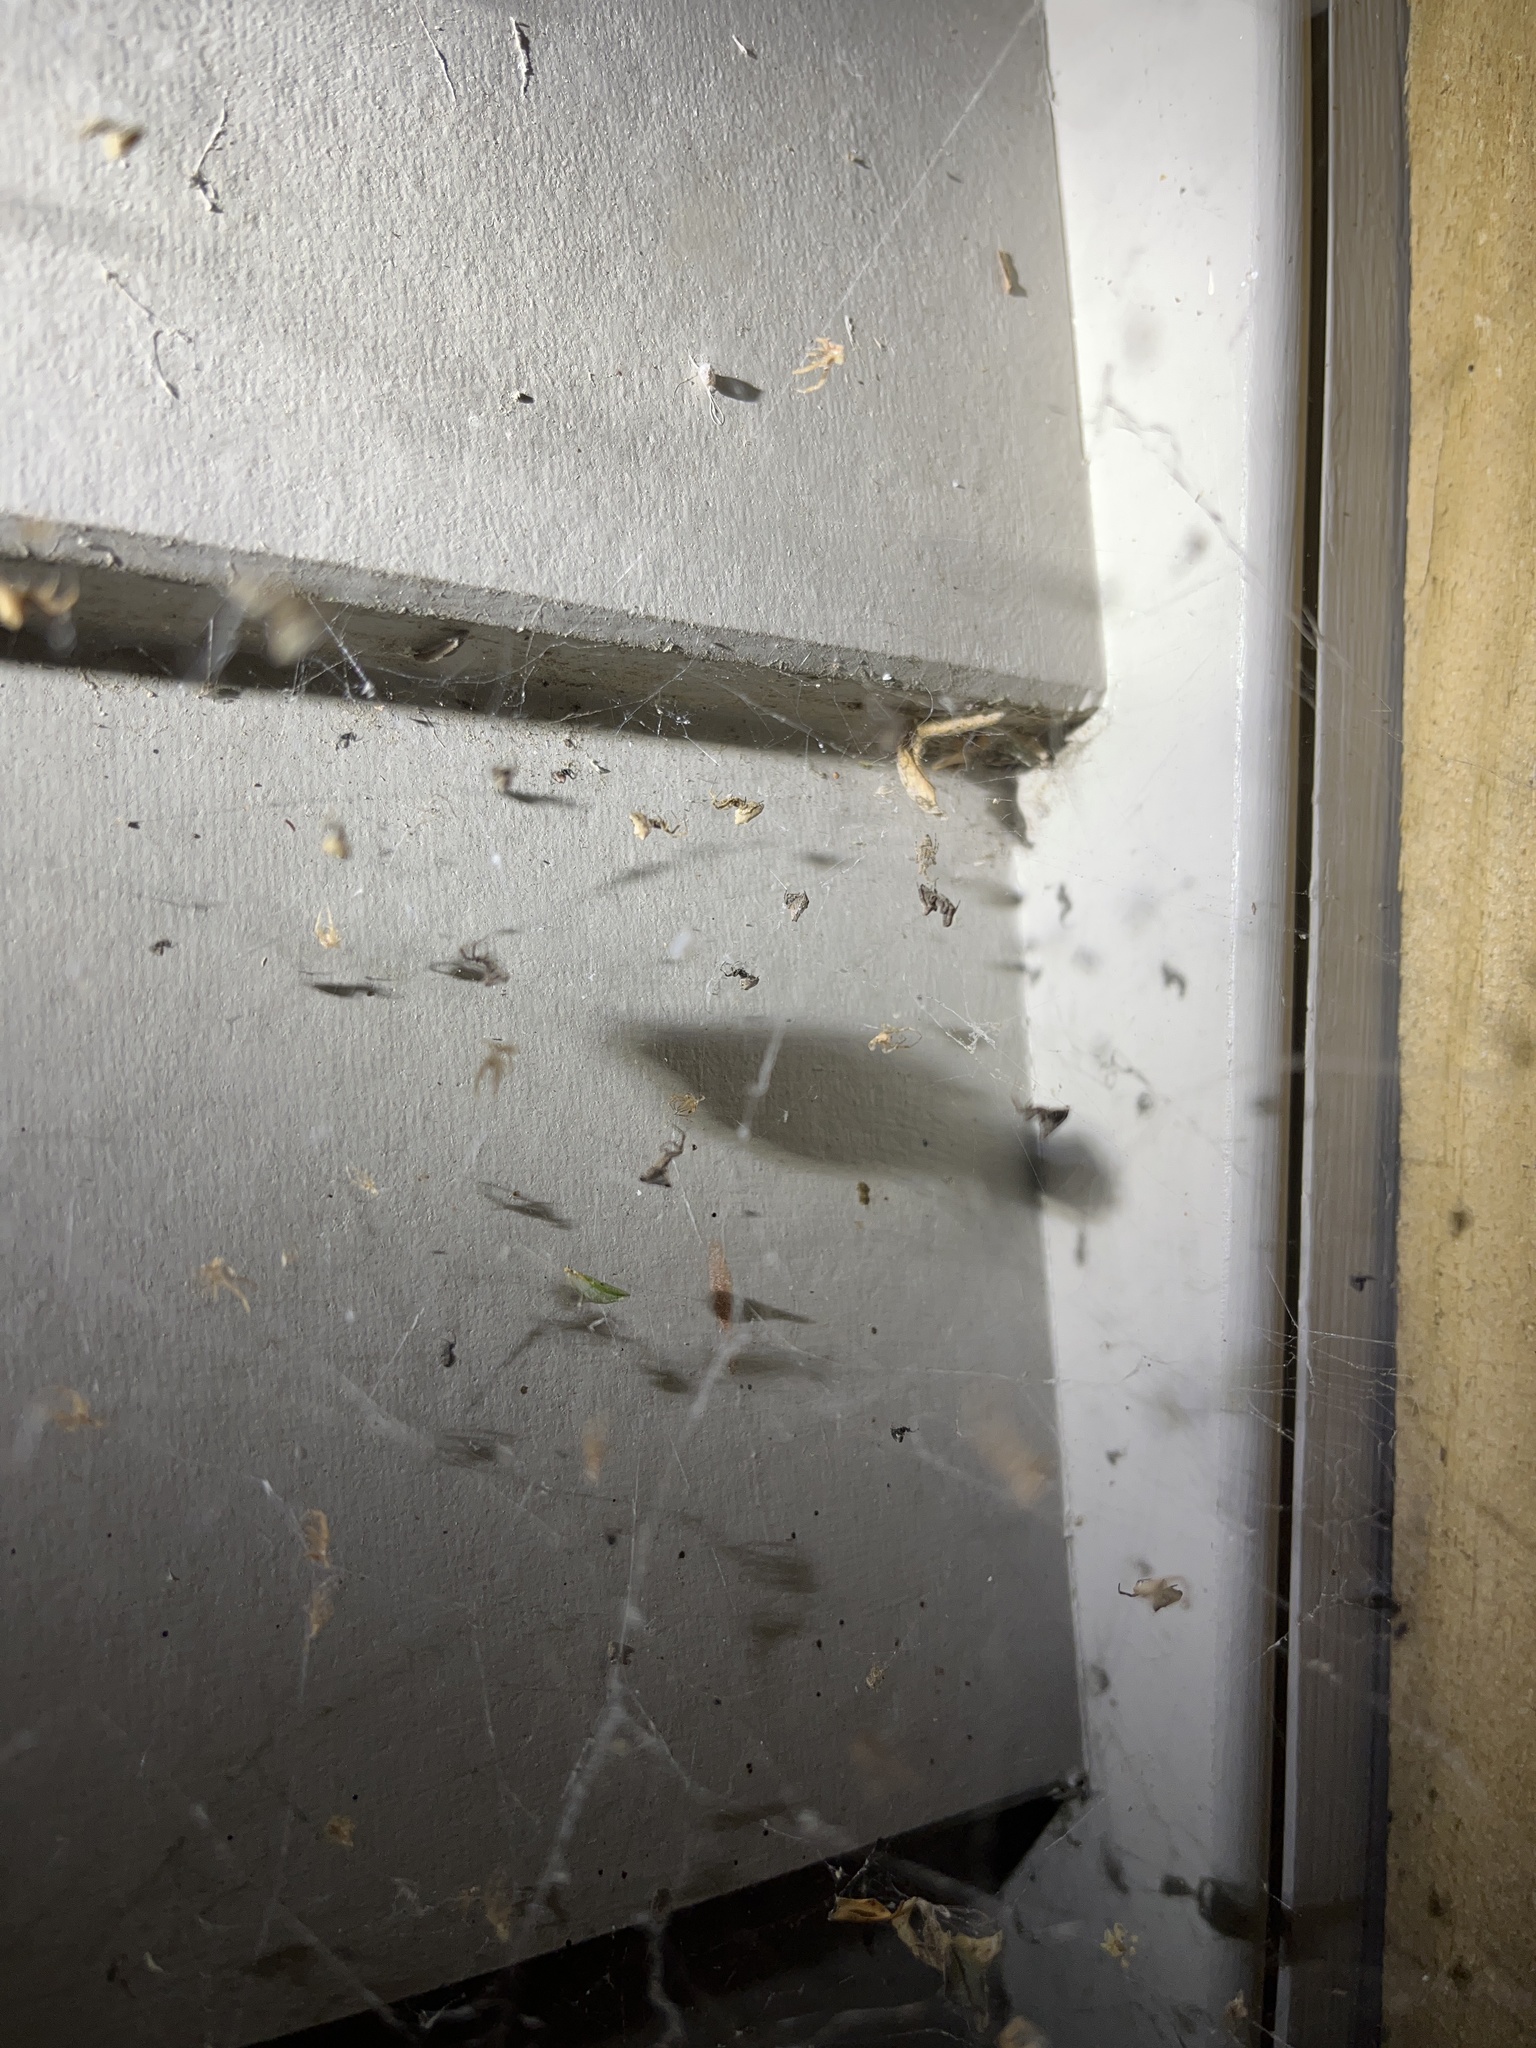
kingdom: Animalia
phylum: Arthropoda
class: Arachnida
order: Araneae
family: Uloboridae
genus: Philoponella
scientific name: Philoponella congregabilis
